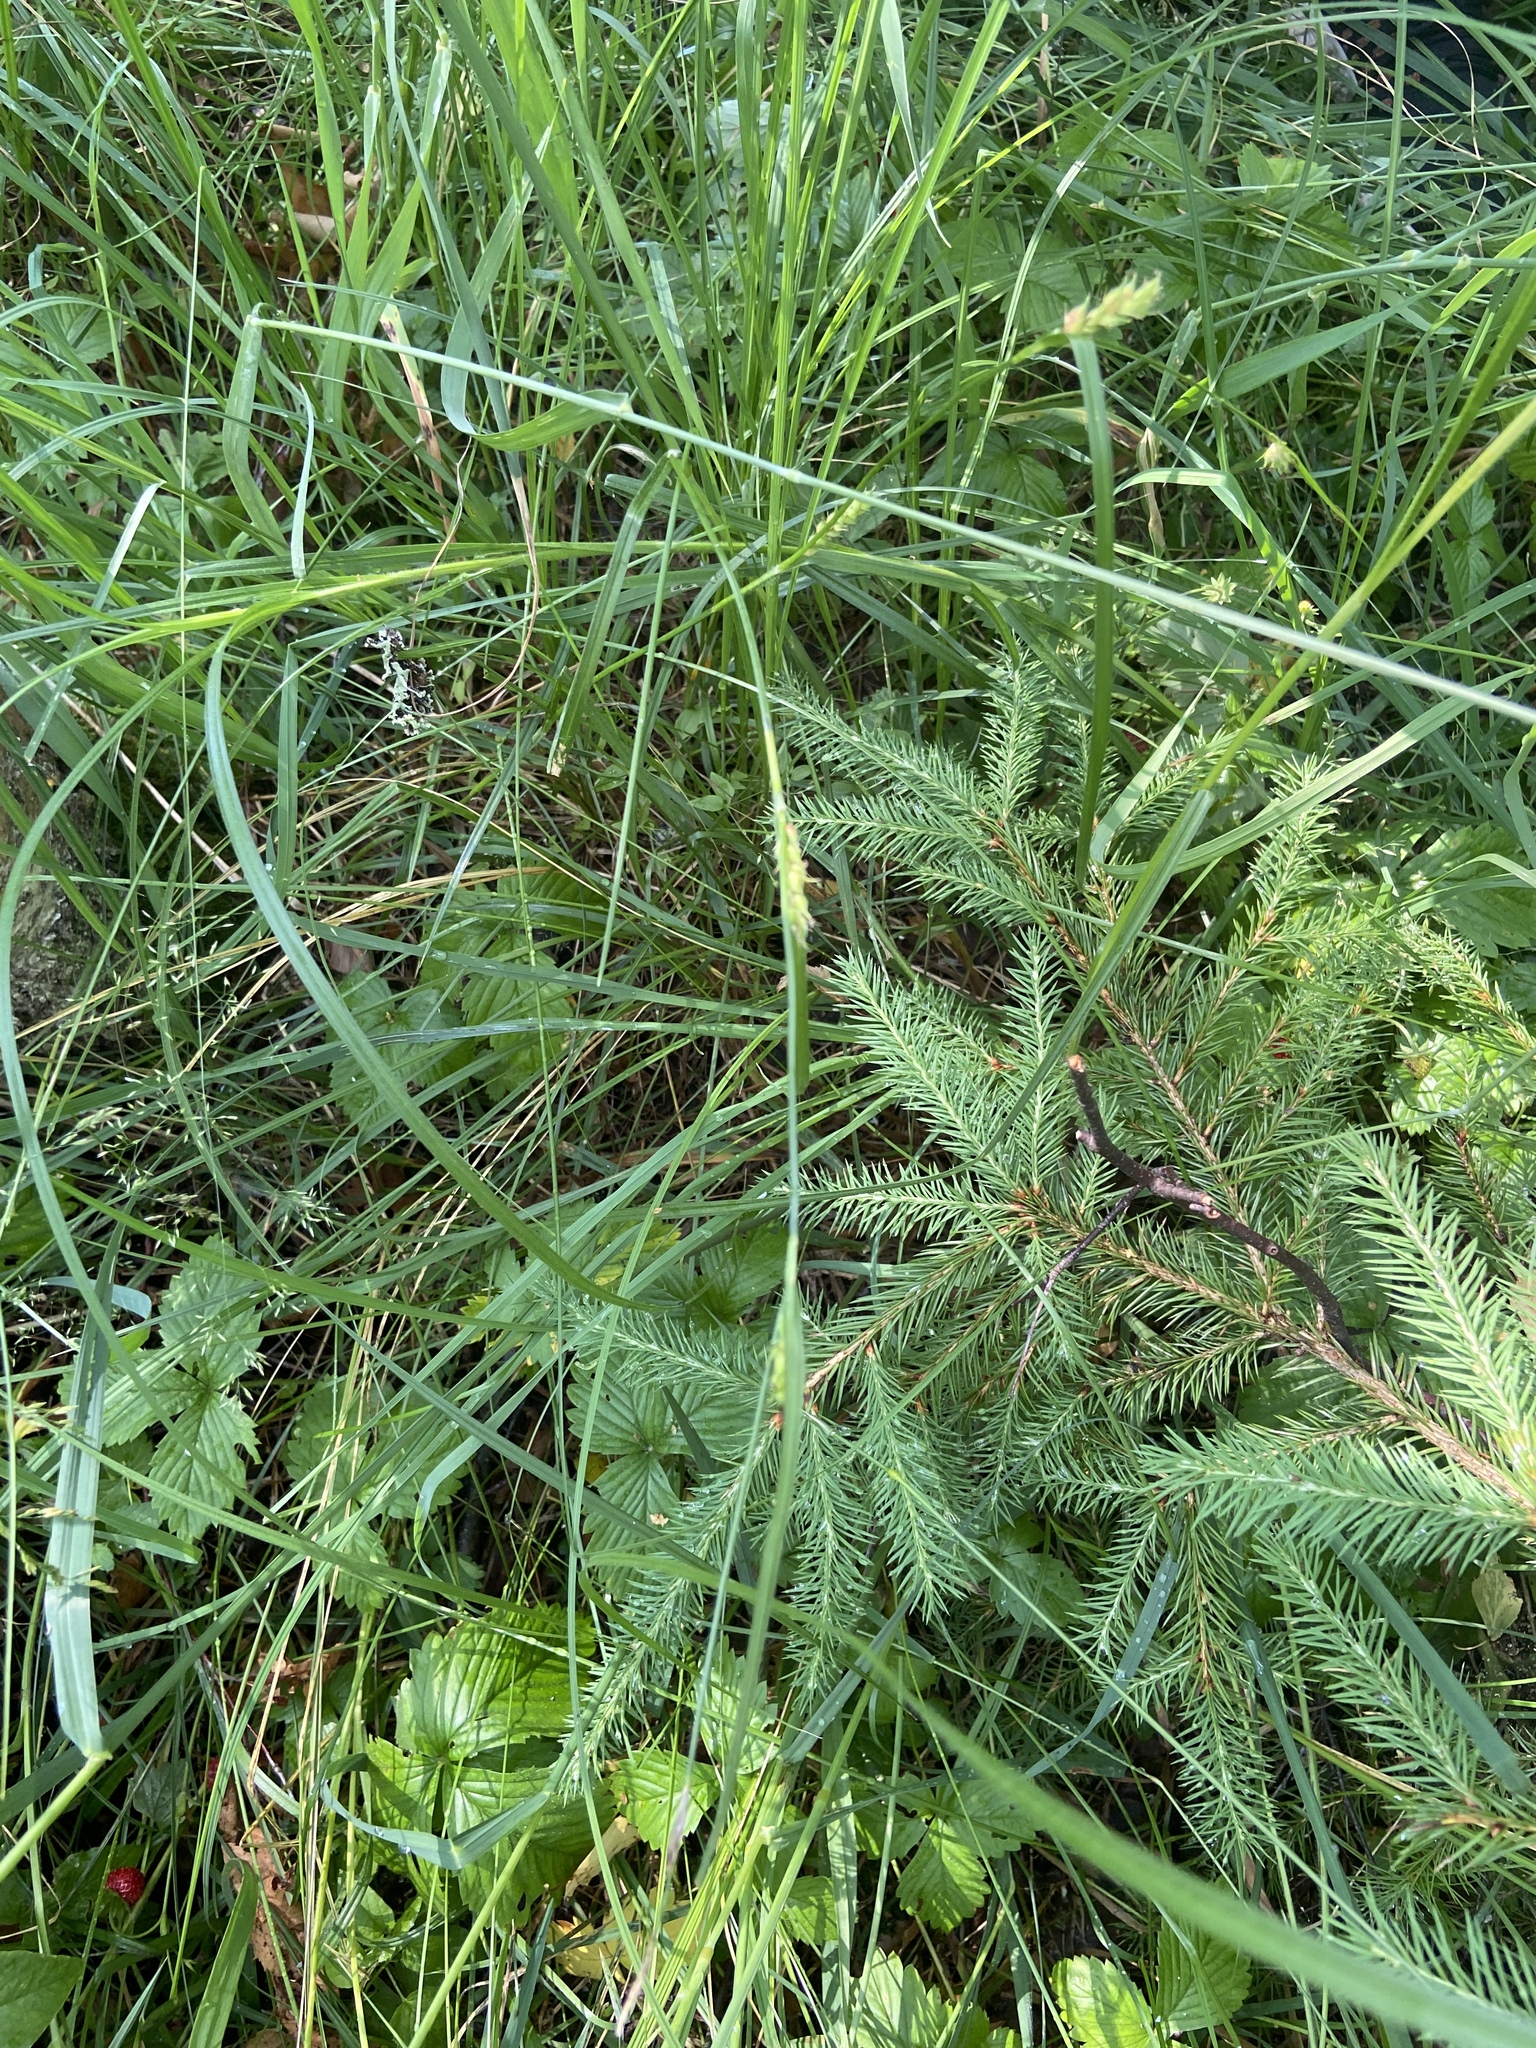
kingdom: Plantae
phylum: Tracheophyta
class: Magnoliopsida
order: Rosales
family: Rosaceae
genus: Fragaria
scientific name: Fragaria vesca
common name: Wild strawberry
